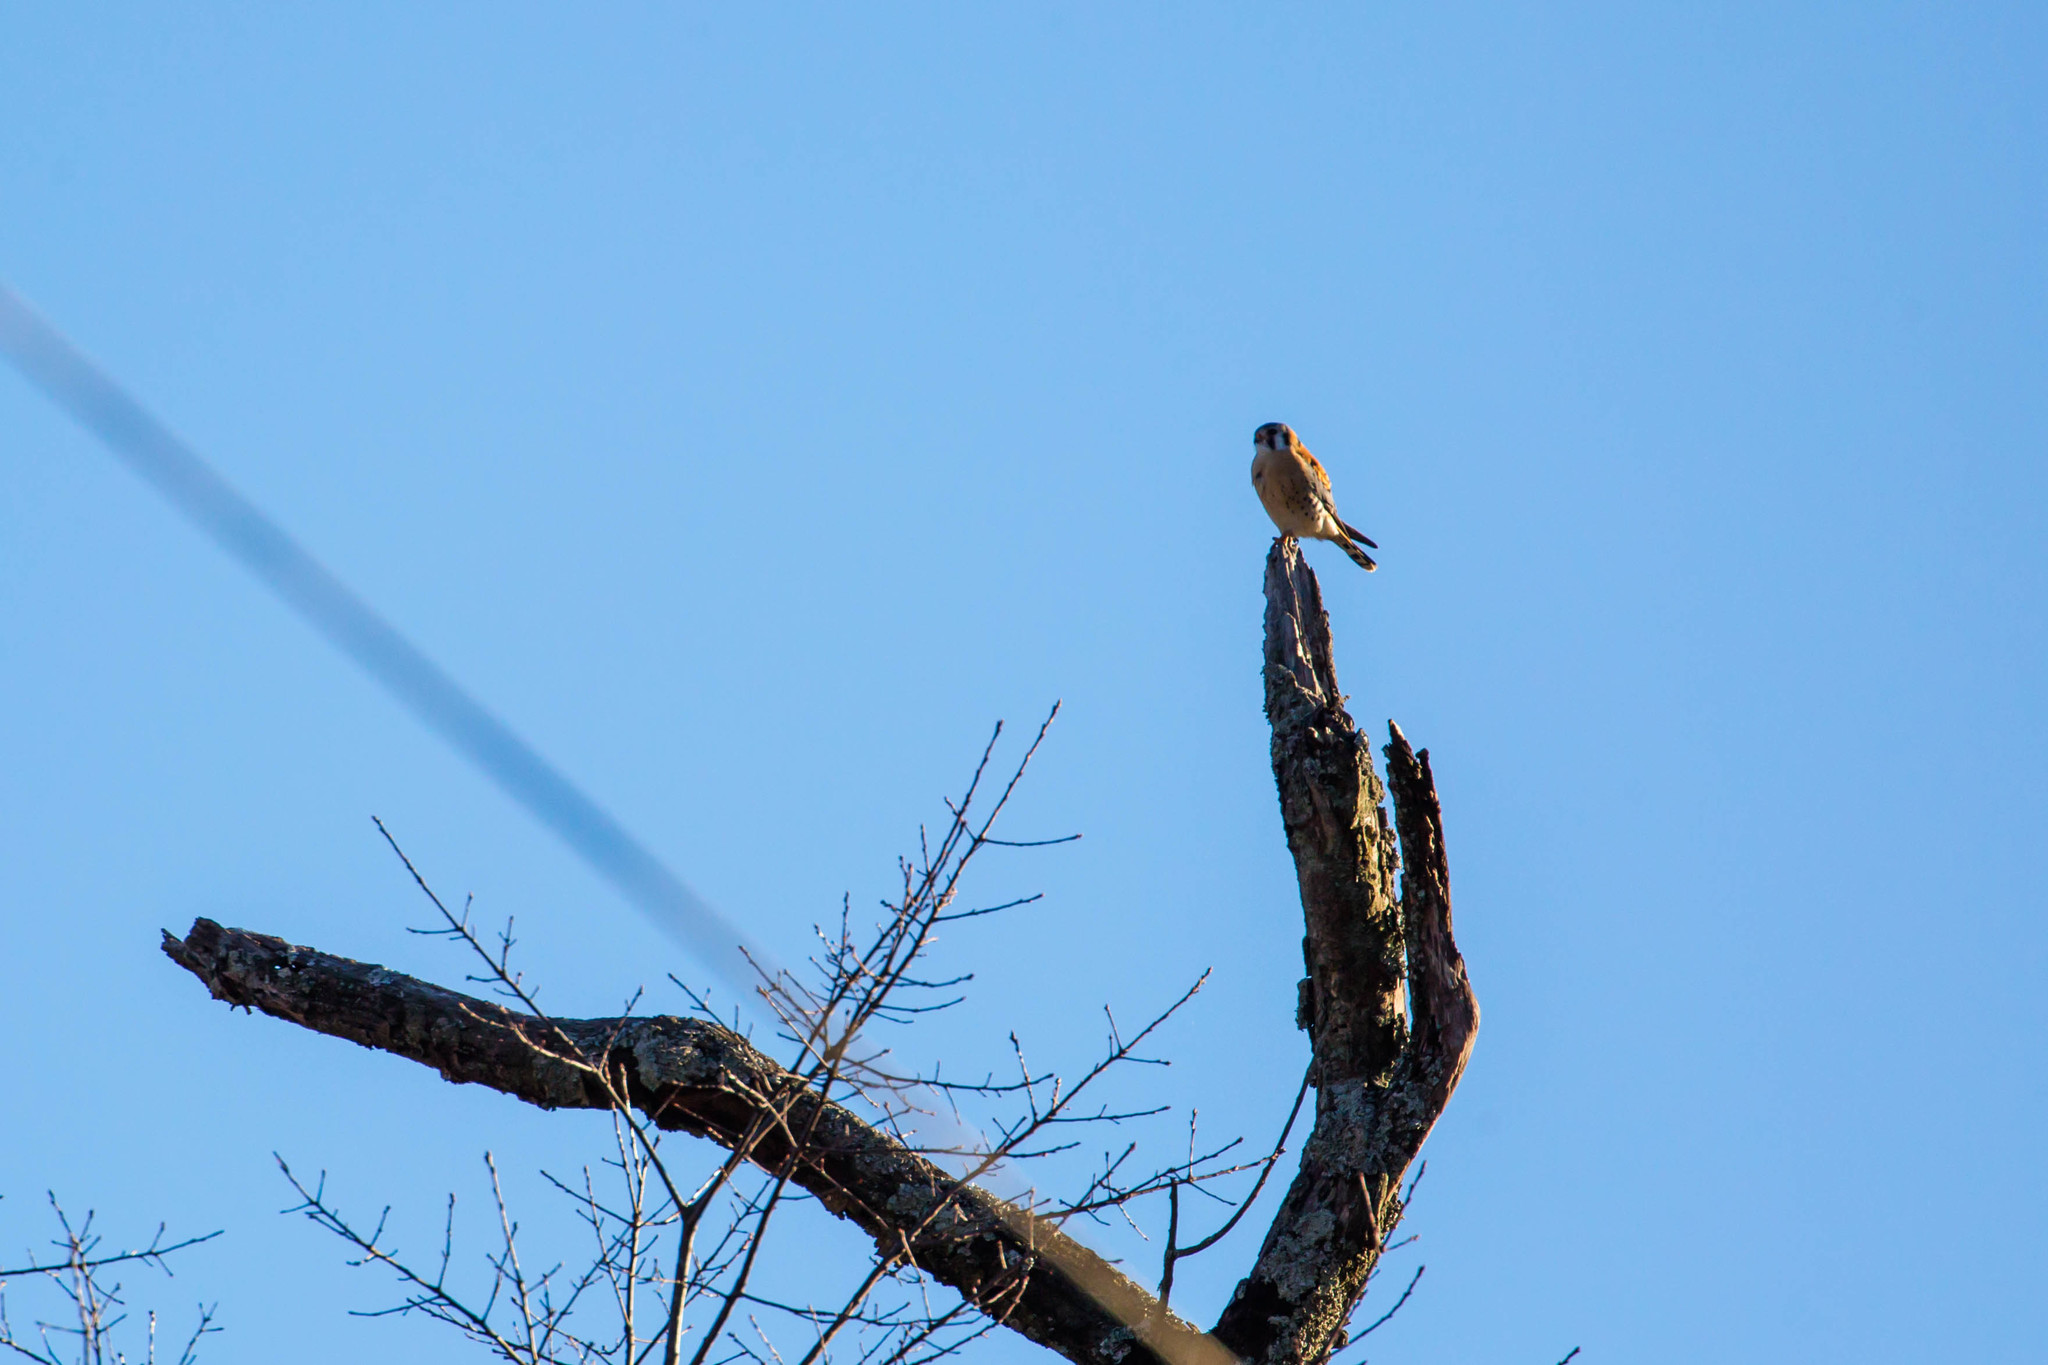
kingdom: Animalia
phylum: Chordata
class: Aves
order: Falconiformes
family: Falconidae
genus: Falco
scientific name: Falco sparverius
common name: American kestrel
